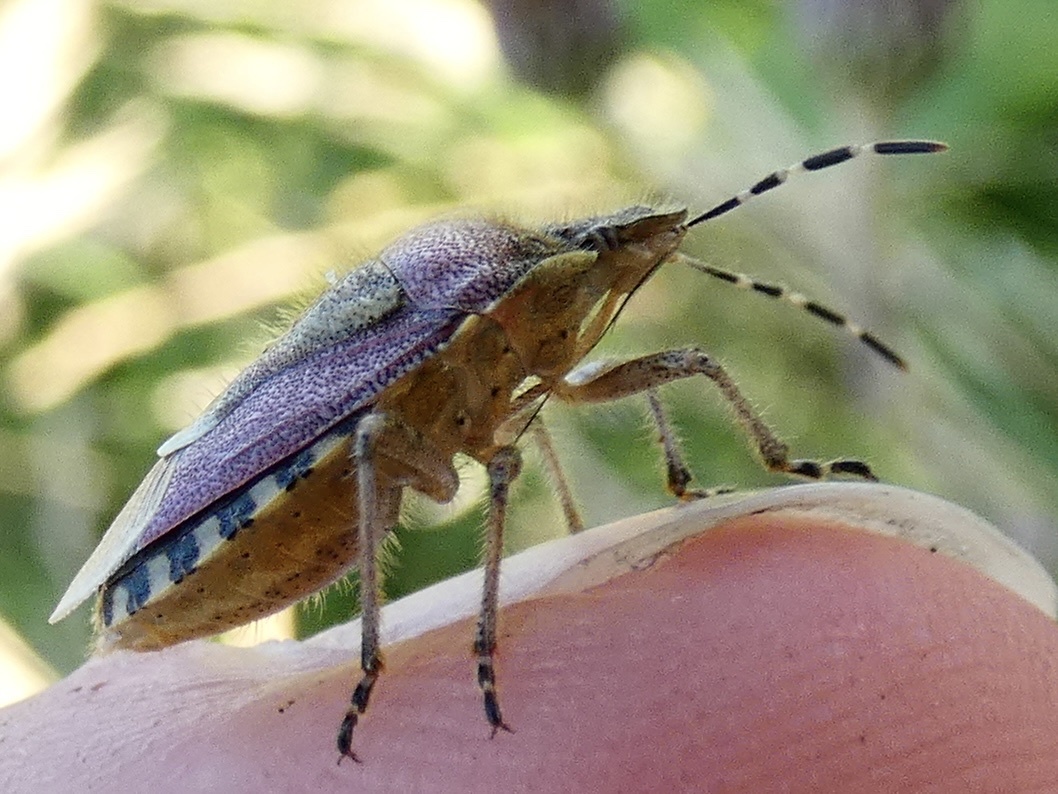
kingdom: Animalia
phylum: Arthropoda
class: Insecta
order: Hemiptera
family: Pentatomidae
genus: Dolycoris
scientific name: Dolycoris baccarum
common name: Sloe bug
